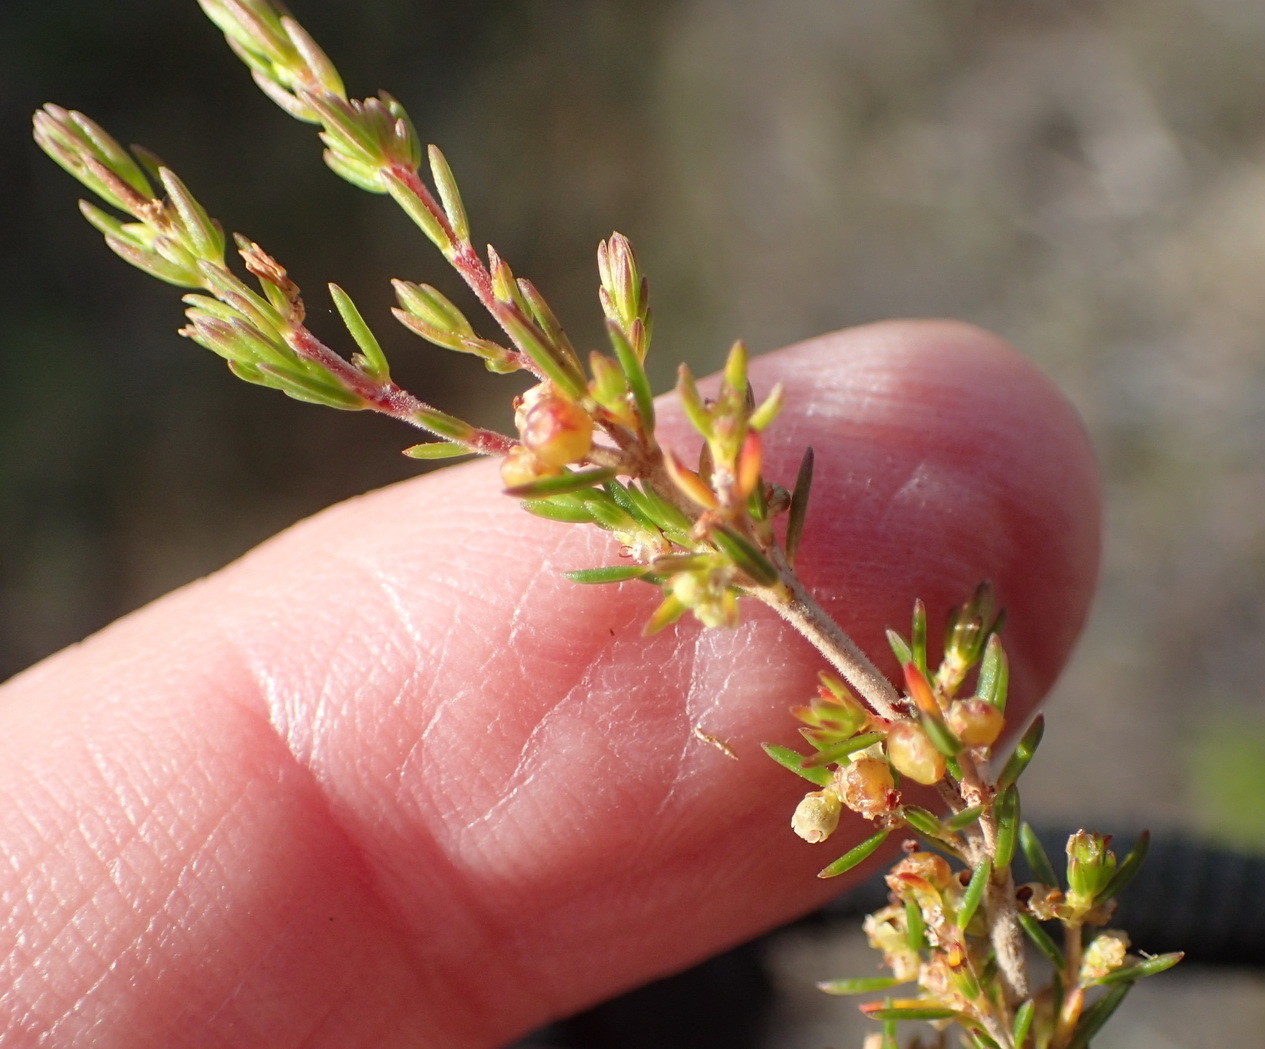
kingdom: Plantae
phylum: Tracheophyta
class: Magnoliopsida
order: Ericales
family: Ericaceae
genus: Erica
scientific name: Erica axillaris
